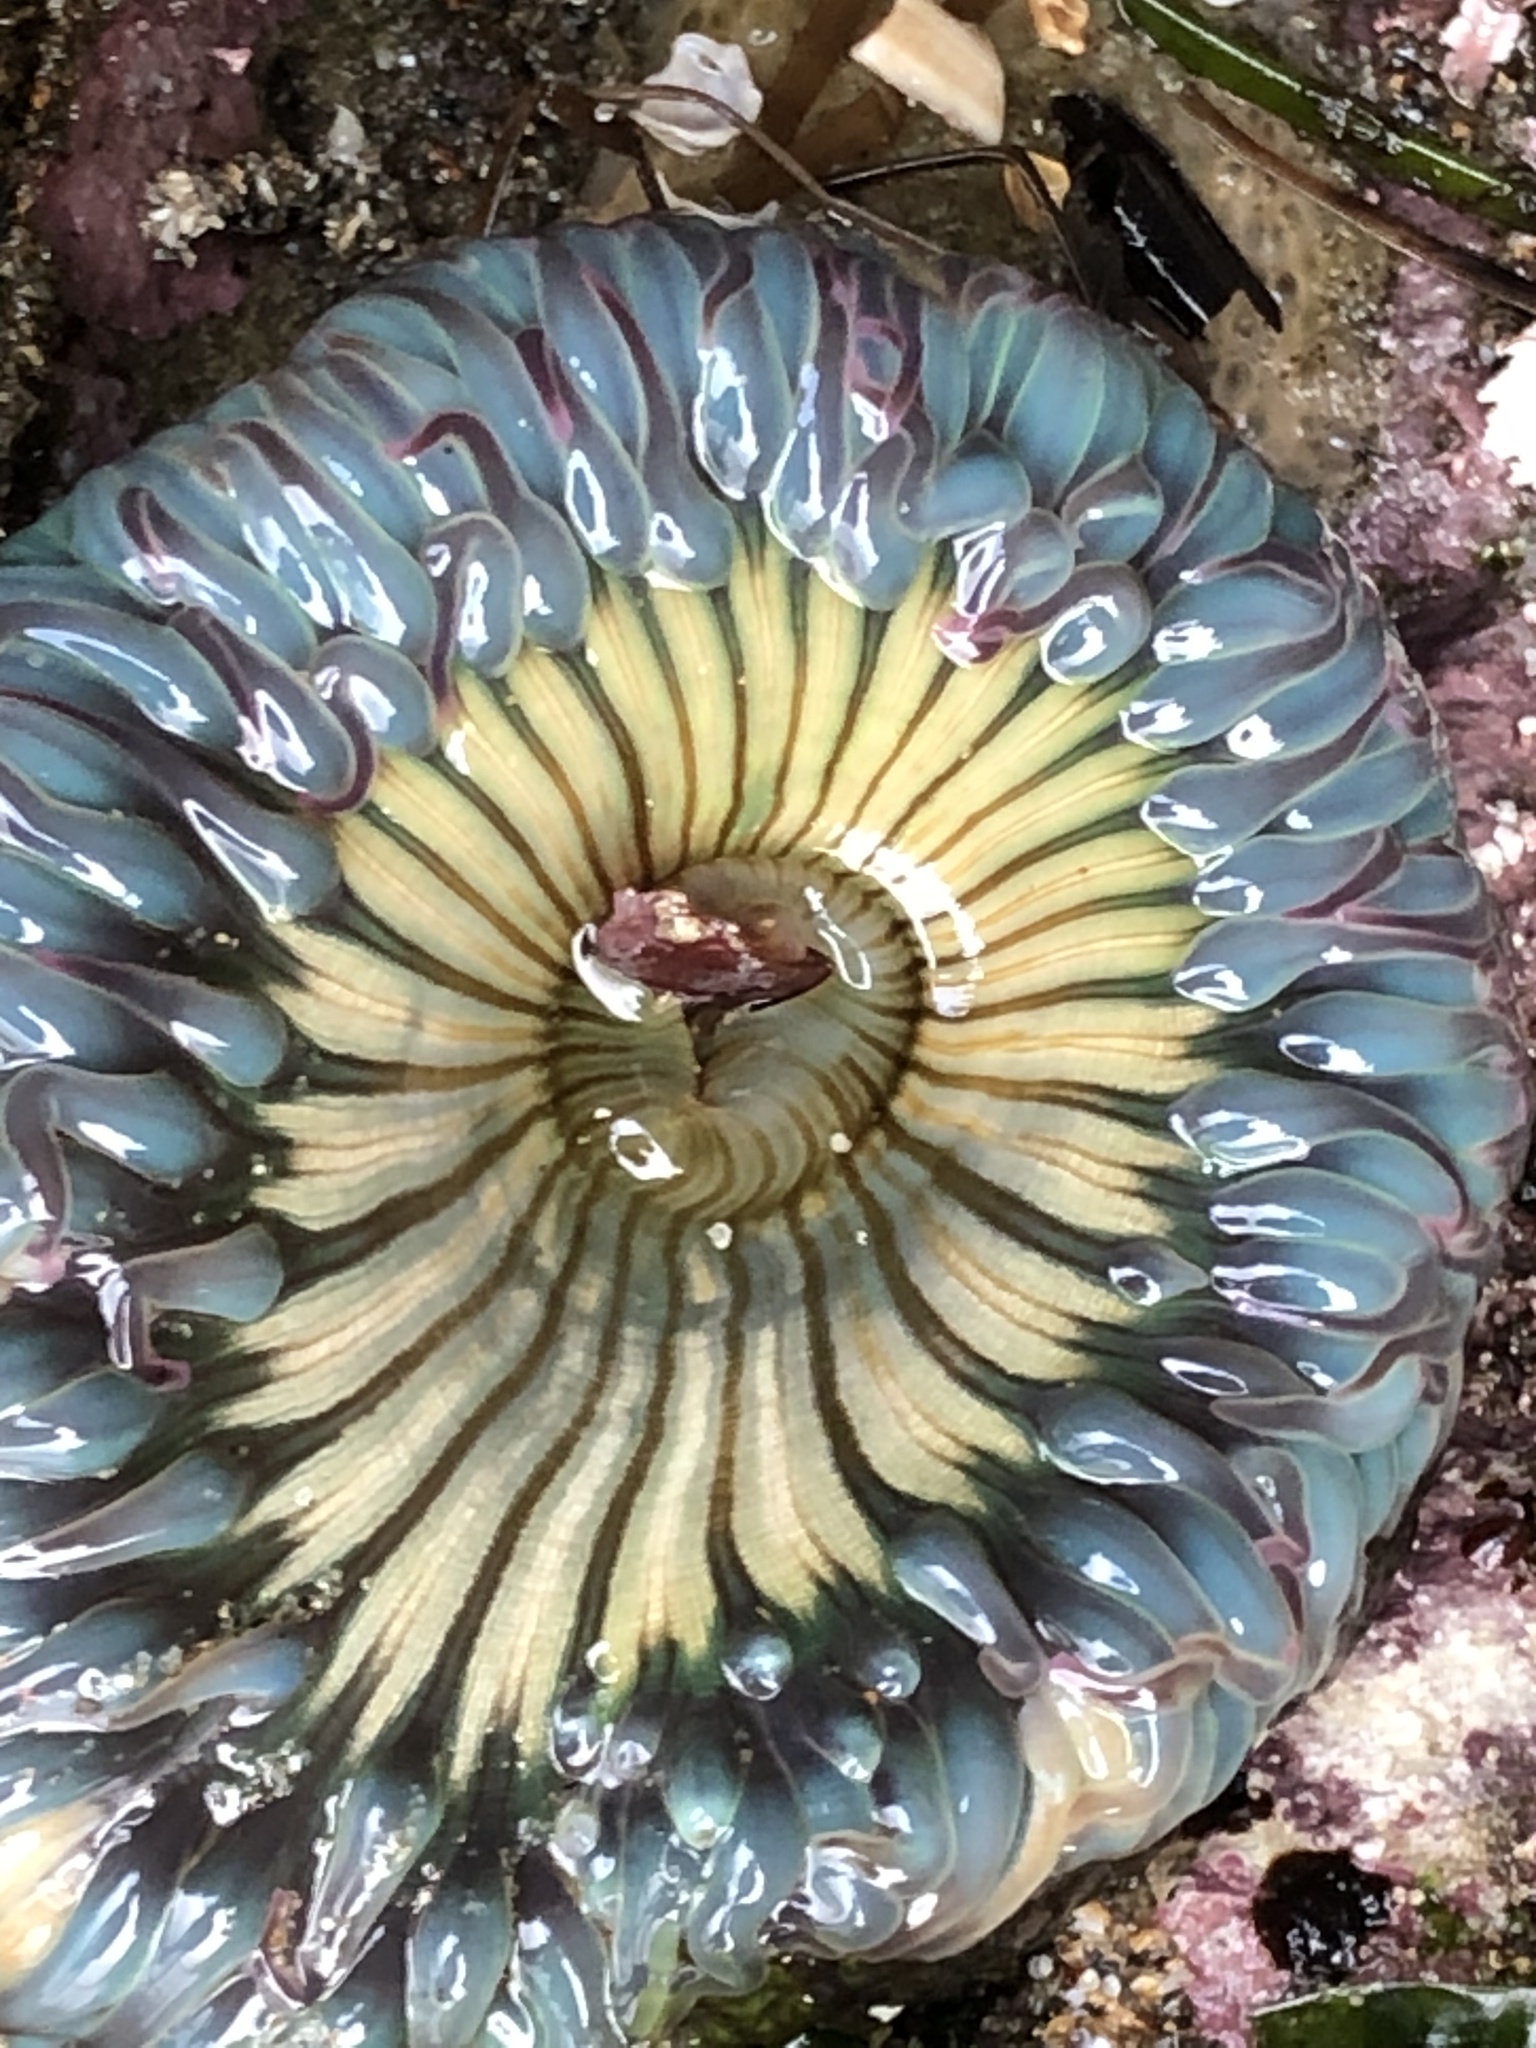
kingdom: Animalia
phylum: Cnidaria
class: Anthozoa
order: Actiniaria
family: Actiniidae
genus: Anthopleura
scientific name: Anthopleura sola
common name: Sun anemone
